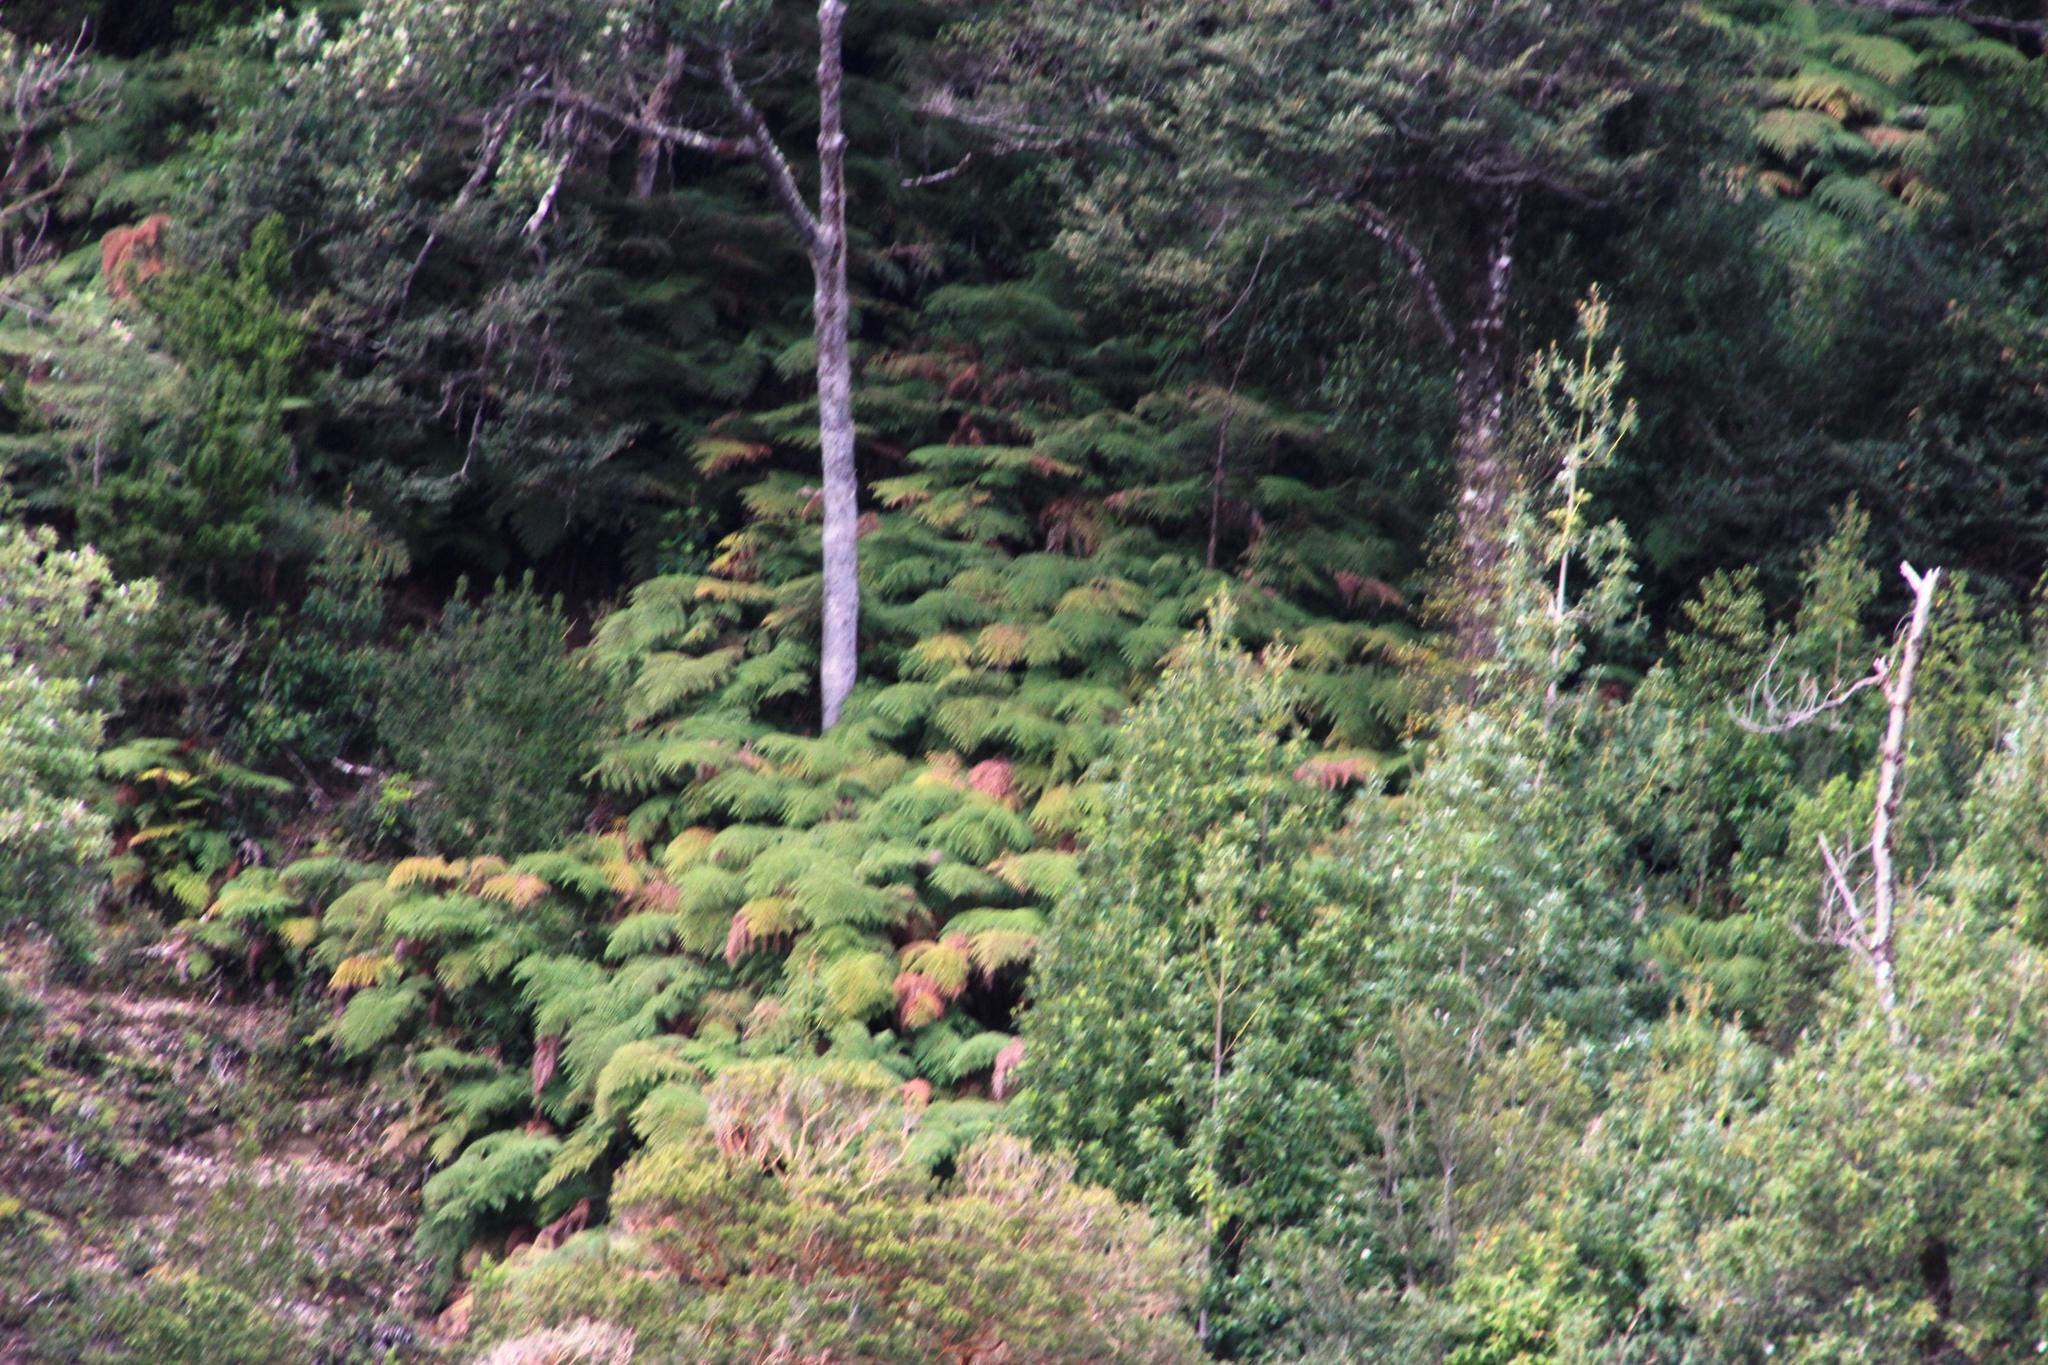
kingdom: Plantae
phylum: Tracheophyta
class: Polypodiopsida
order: Cyatheales
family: Dicksoniaceae
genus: Lophosoria
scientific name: Lophosoria quadripinnata
